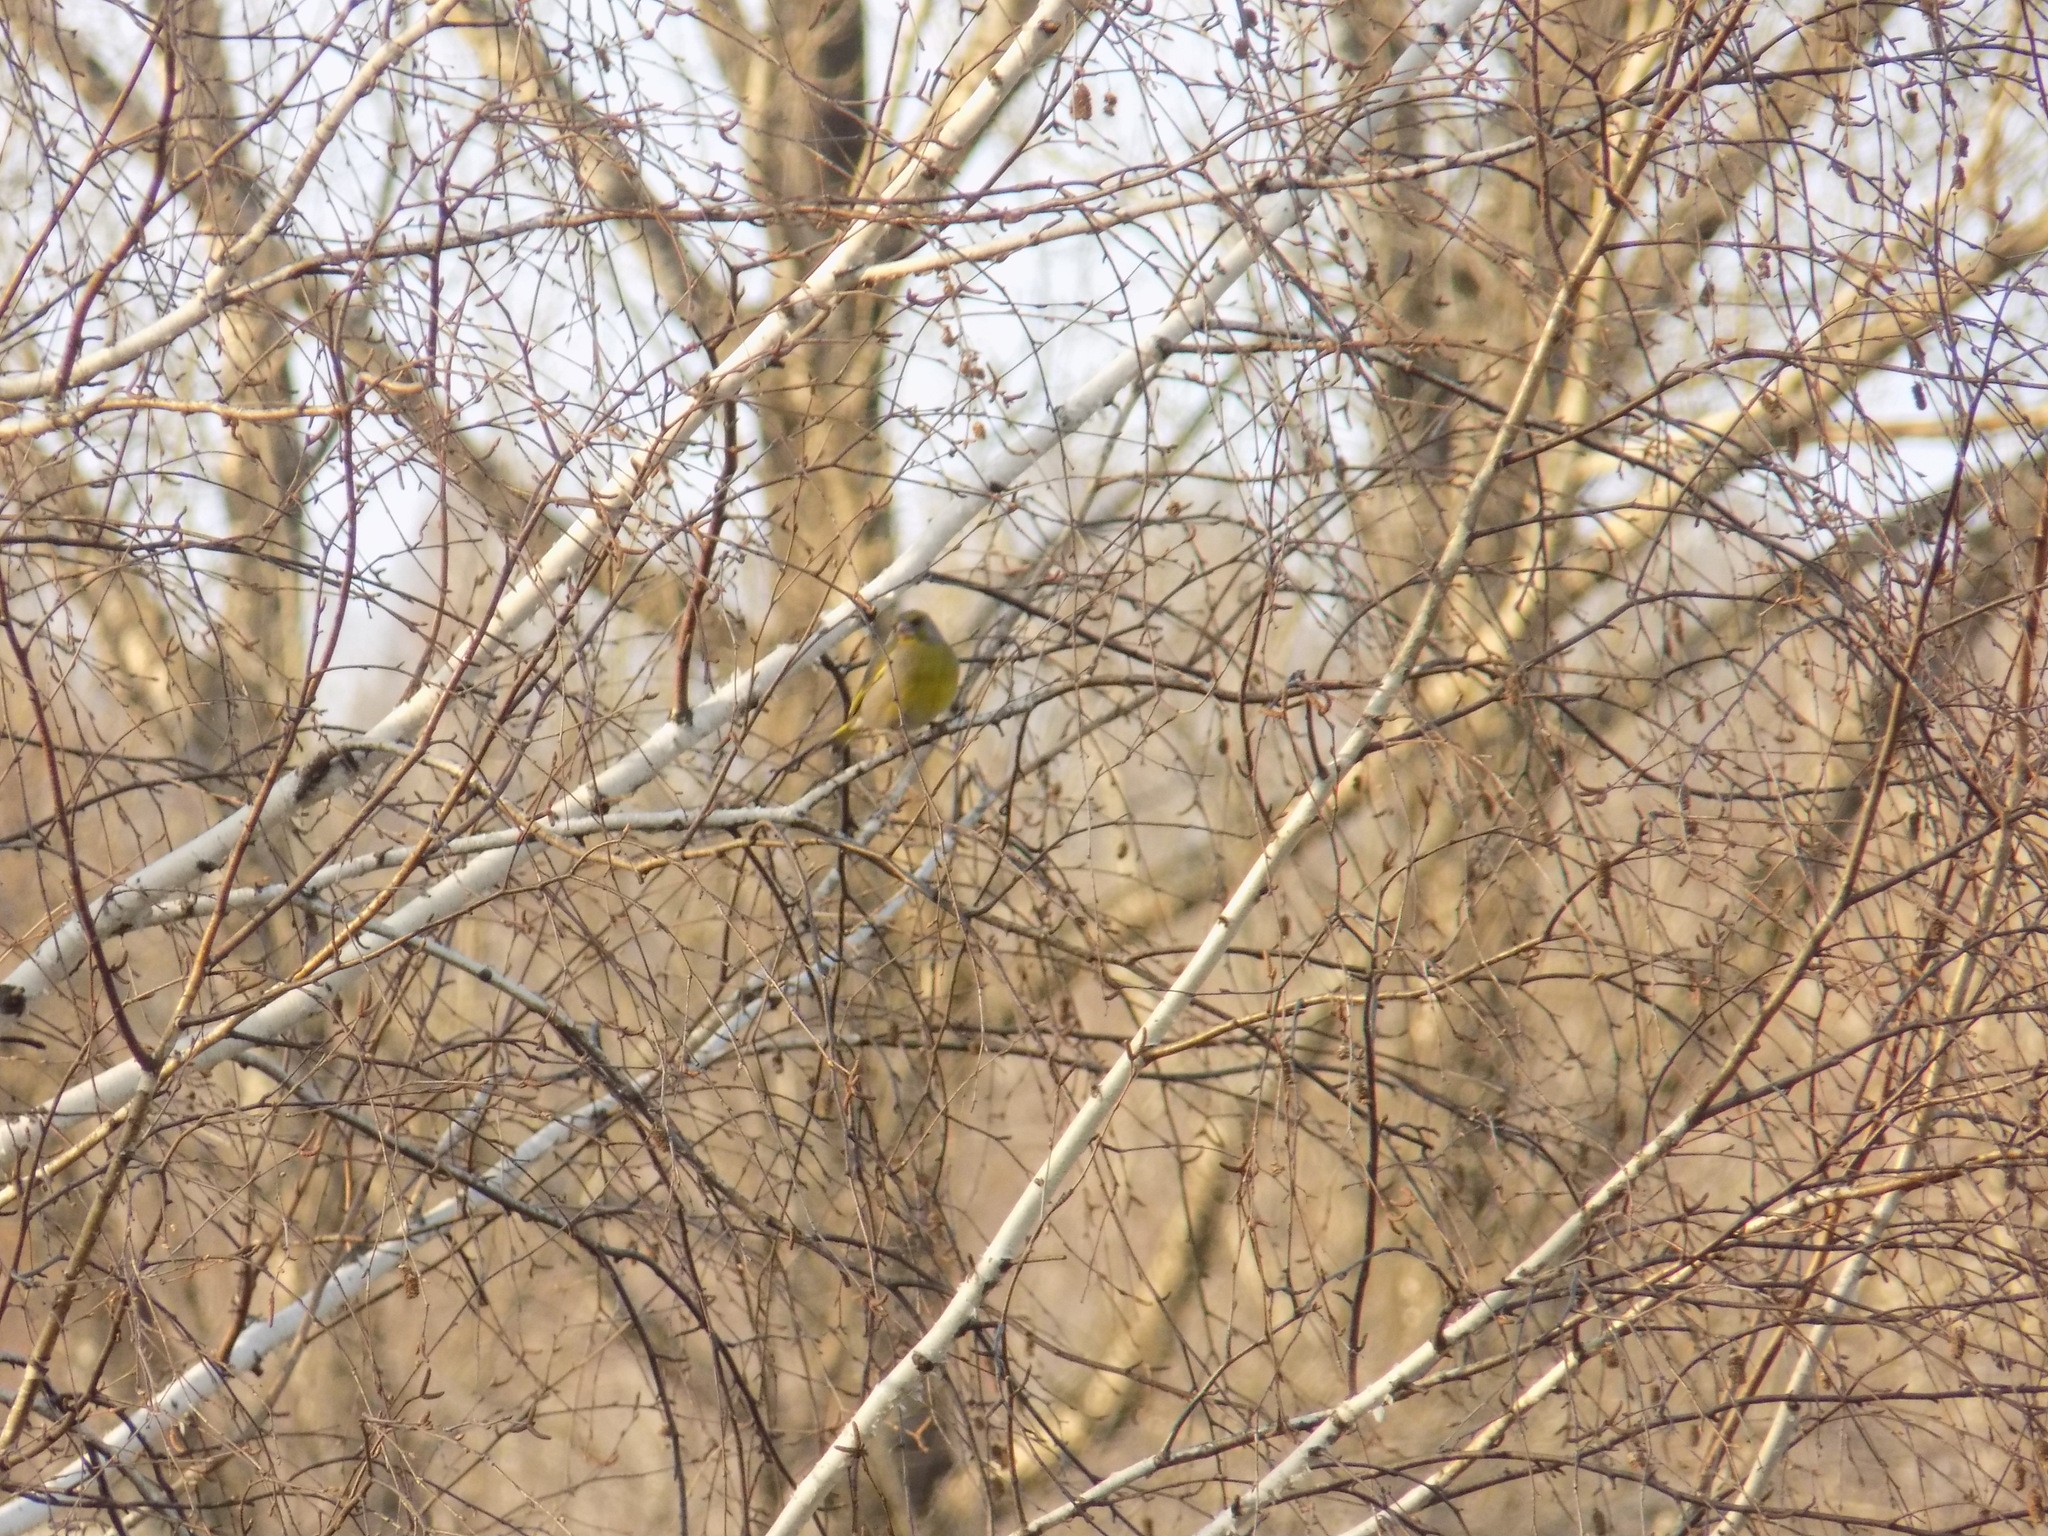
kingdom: Plantae
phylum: Tracheophyta
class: Liliopsida
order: Poales
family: Poaceae
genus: Chloris
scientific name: Chloris chloris
